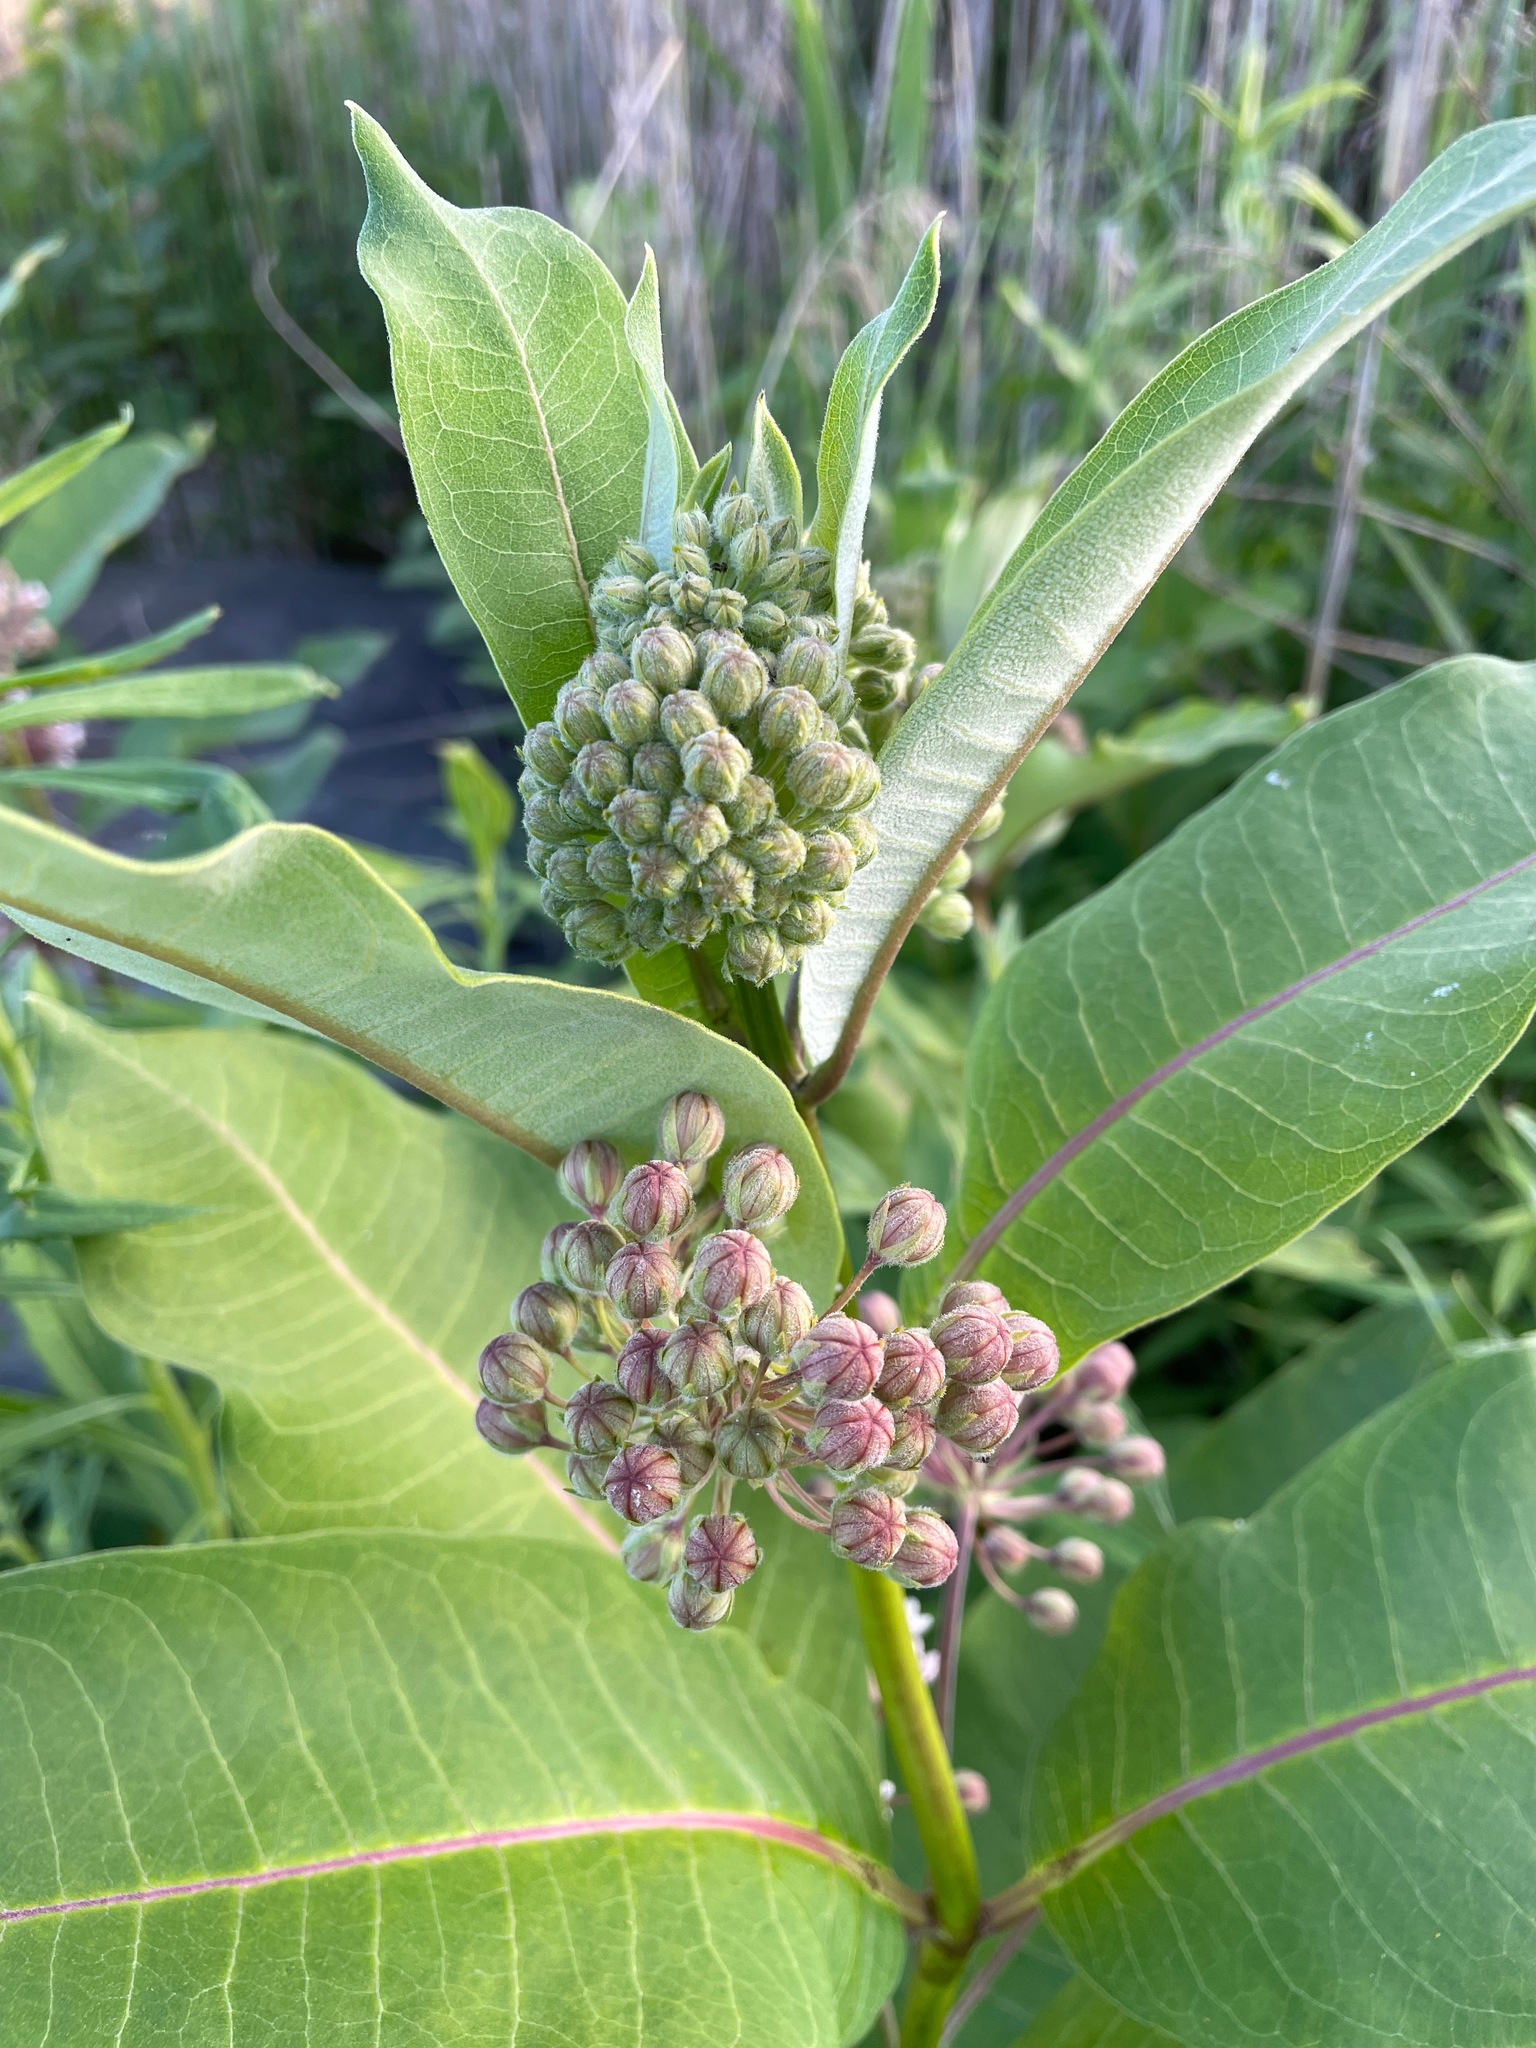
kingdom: Plantae
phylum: Tracheophyta
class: Magnoliopsida
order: Gentianales
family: Apocynaceae
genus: Asclepias
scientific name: Asclepias syriaca
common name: Common milkweed
